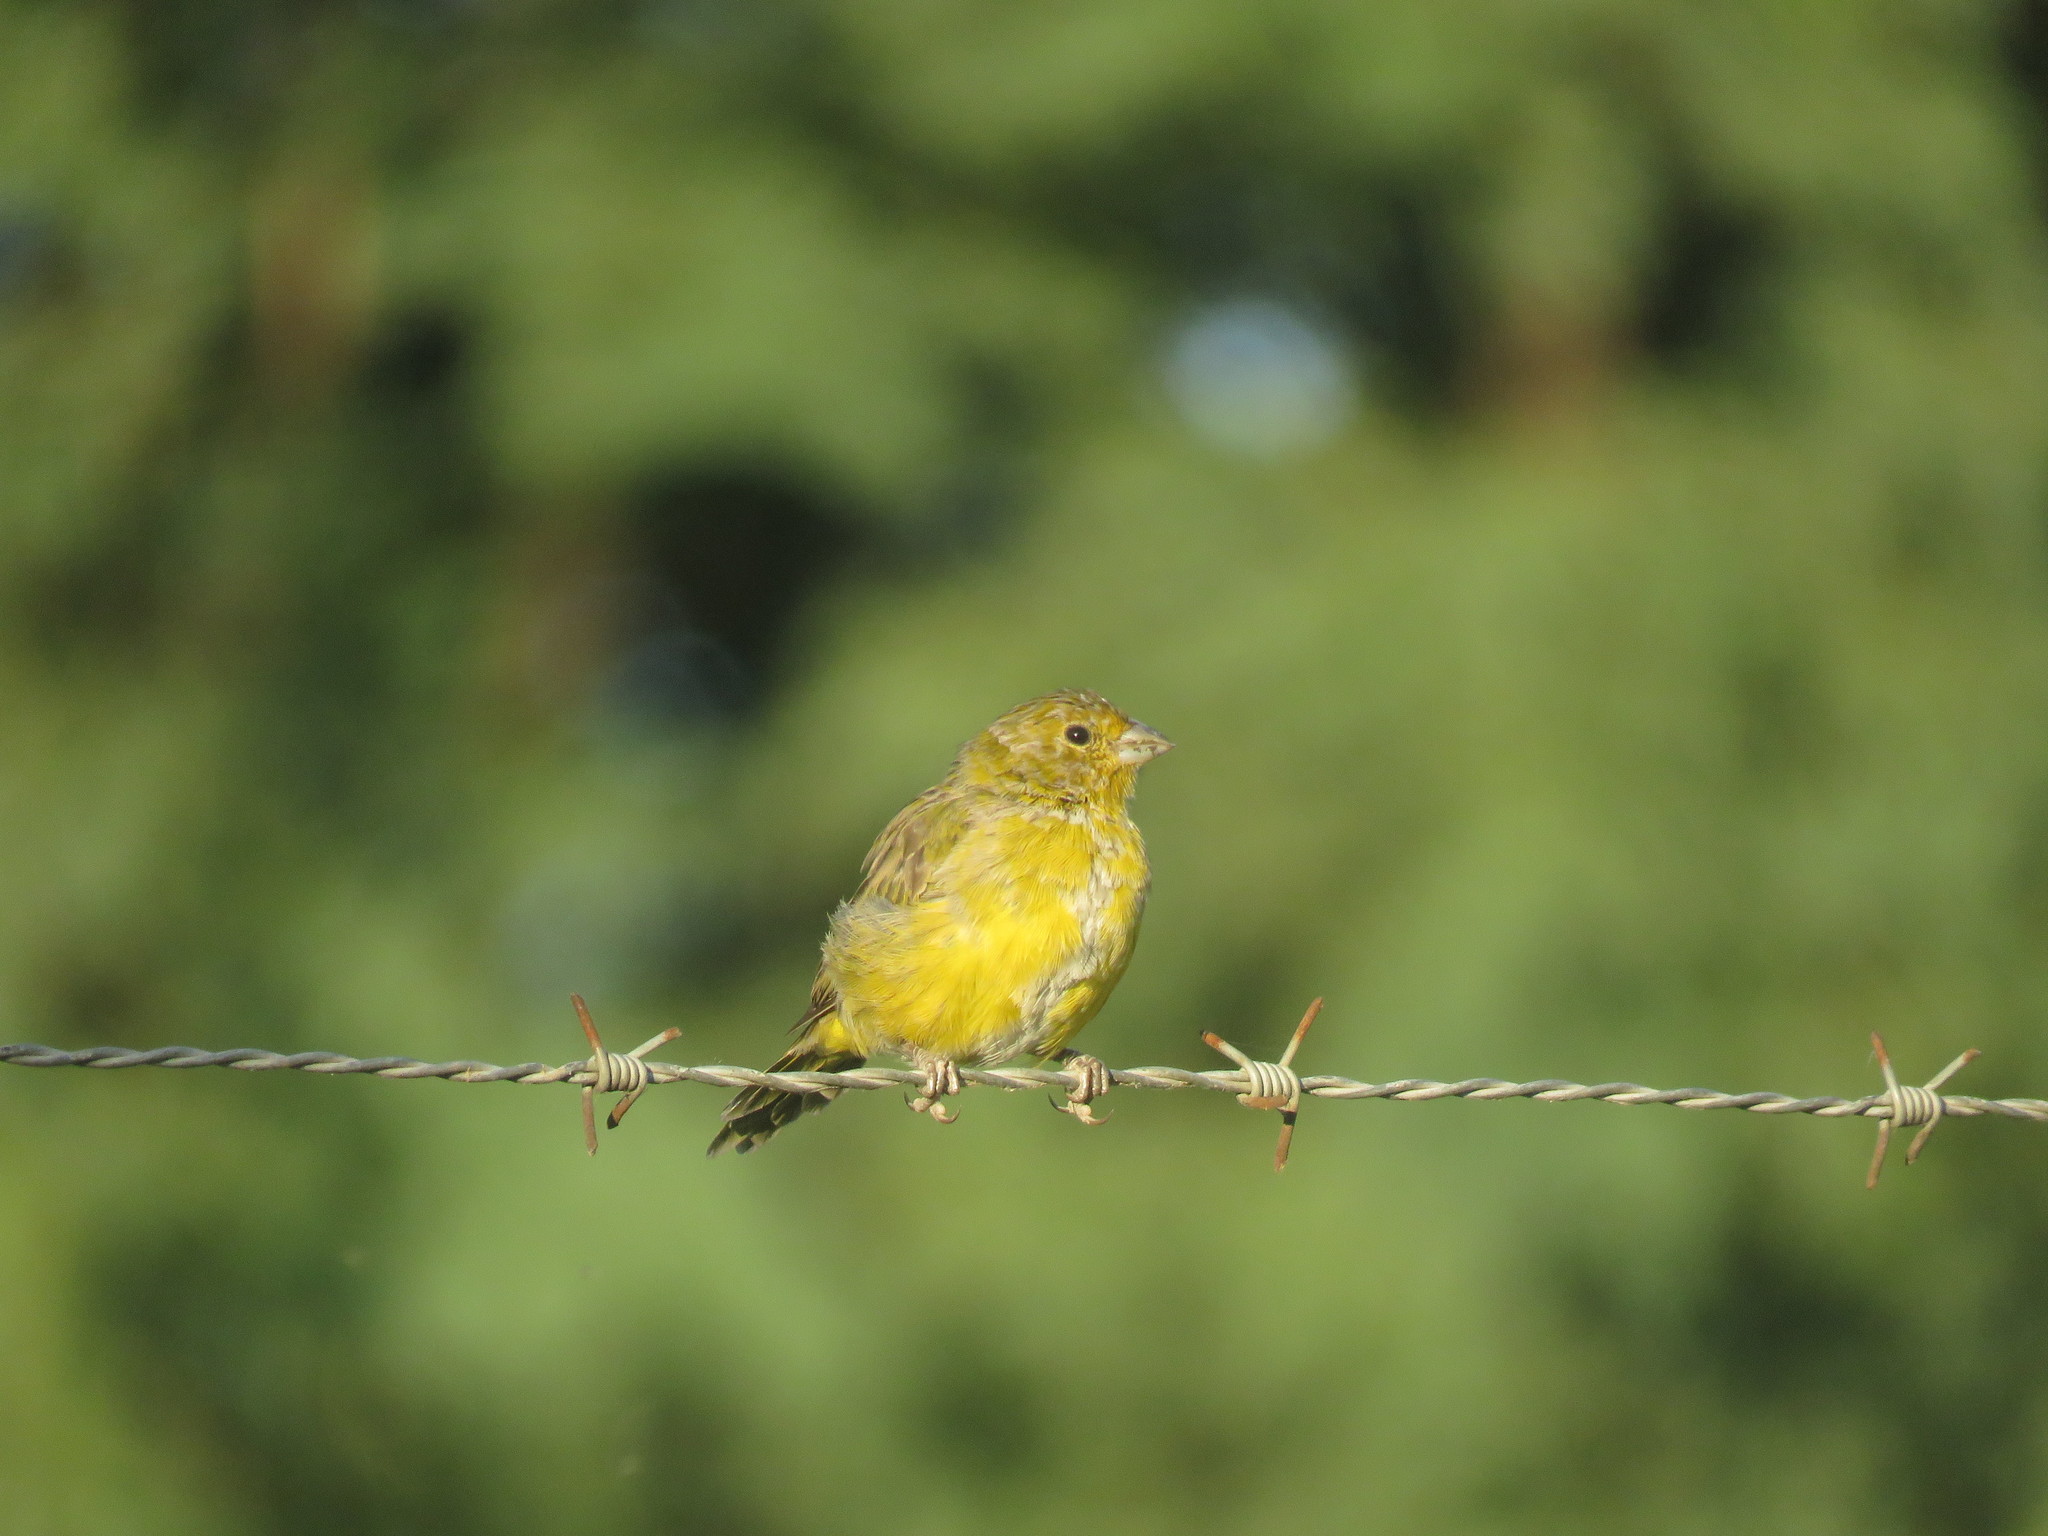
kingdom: Animalia
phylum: Chordata
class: Aves
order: Passeriformes
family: Thraupidae
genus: Sicalis
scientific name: Sicalis flaveola
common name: Saffron finch
